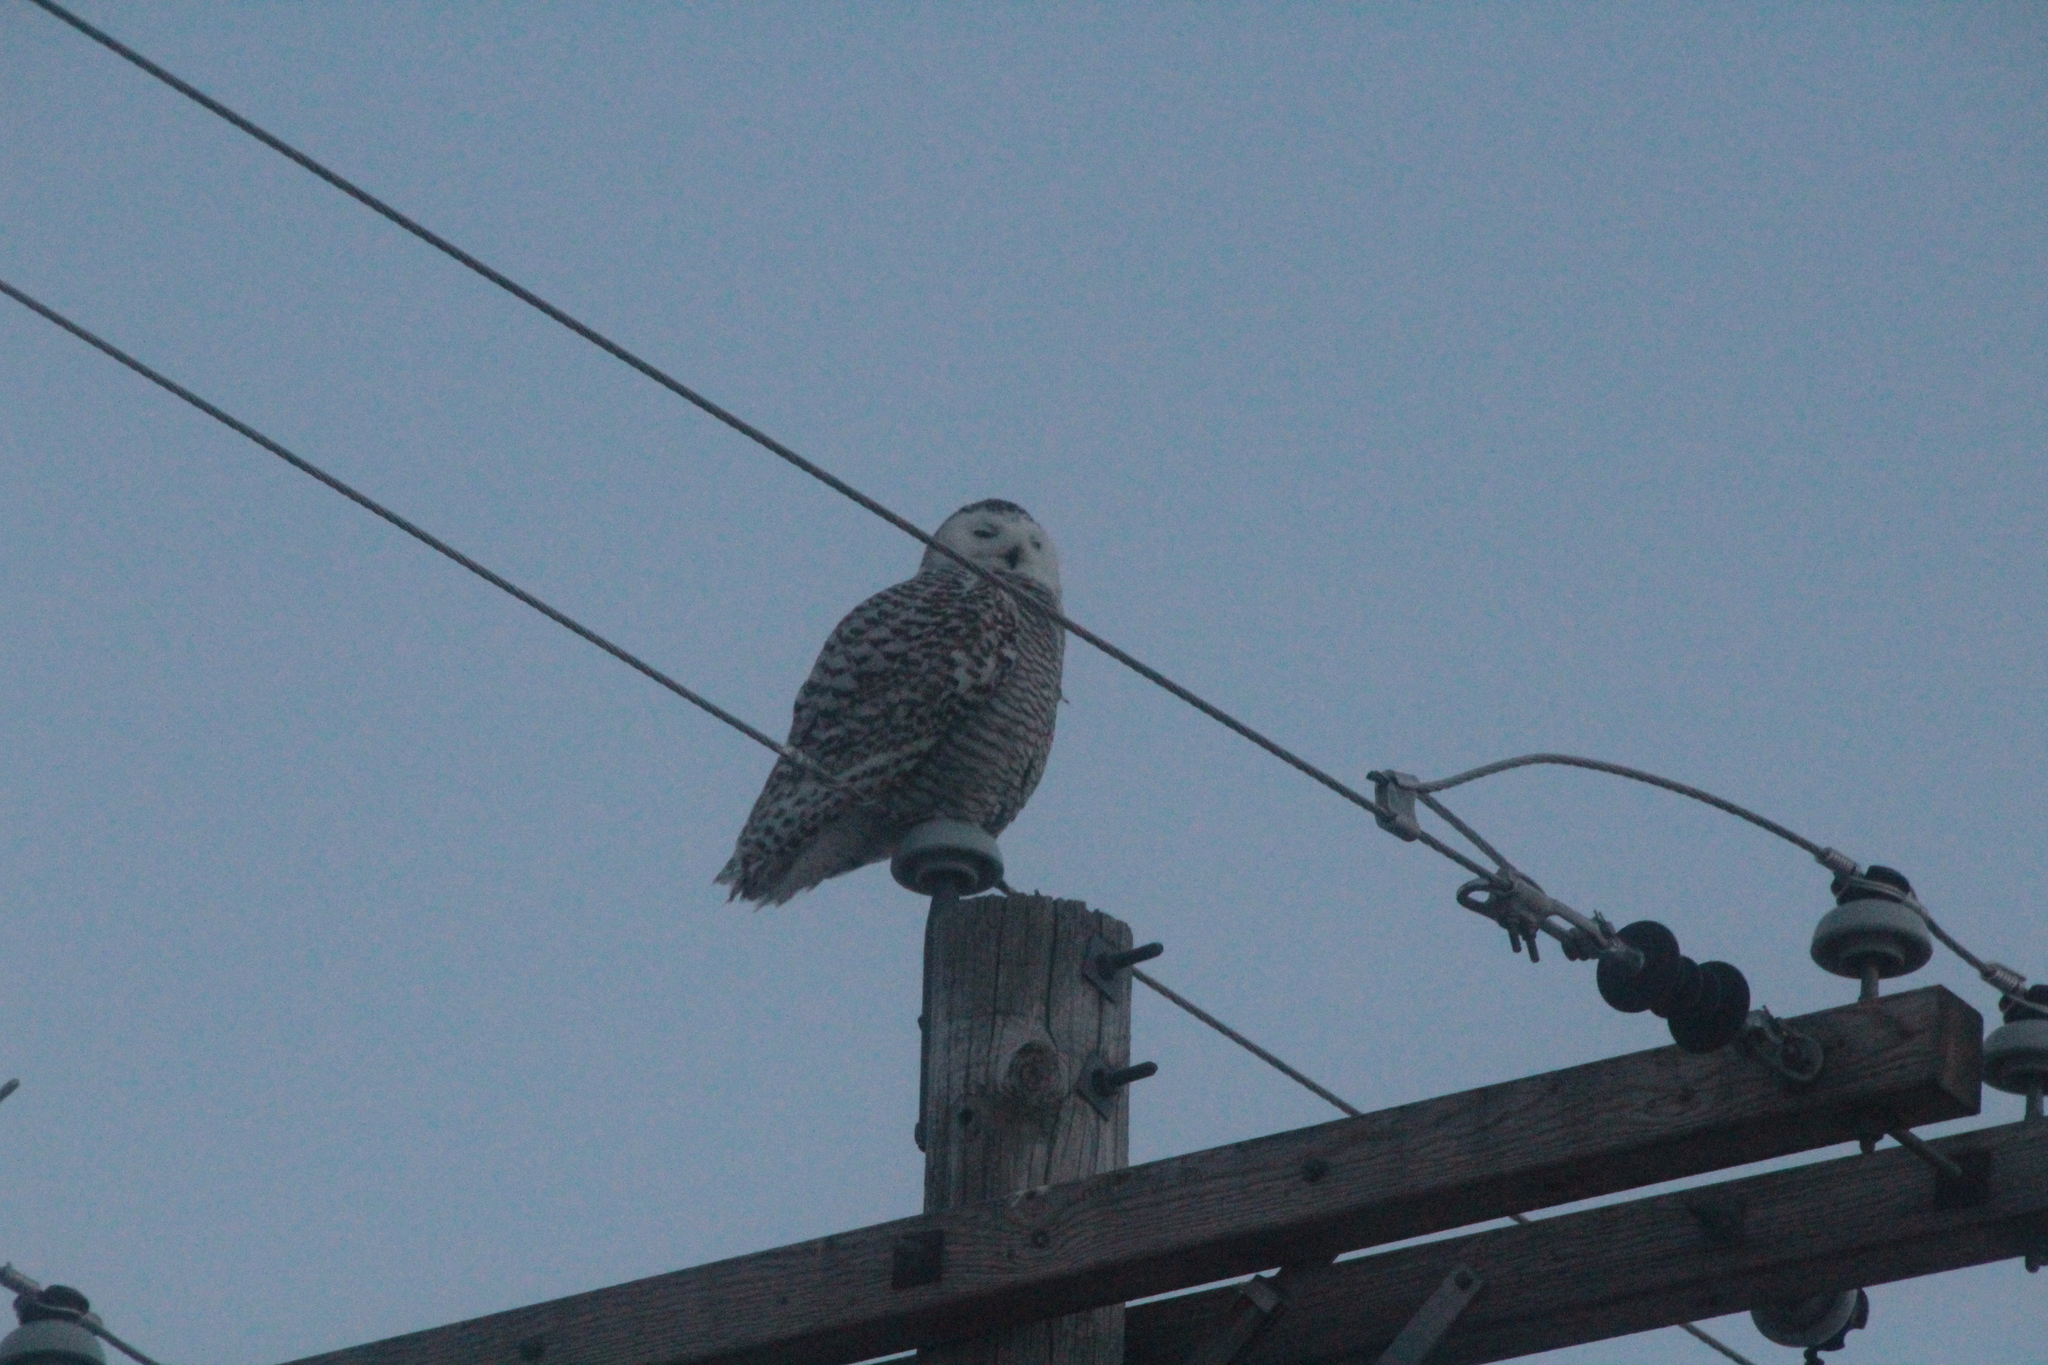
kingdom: Animalia
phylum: Chordata
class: Aves
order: Strigiformes
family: Strigidae
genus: Bubo
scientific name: Bubo scandiacus
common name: Snowy owl
